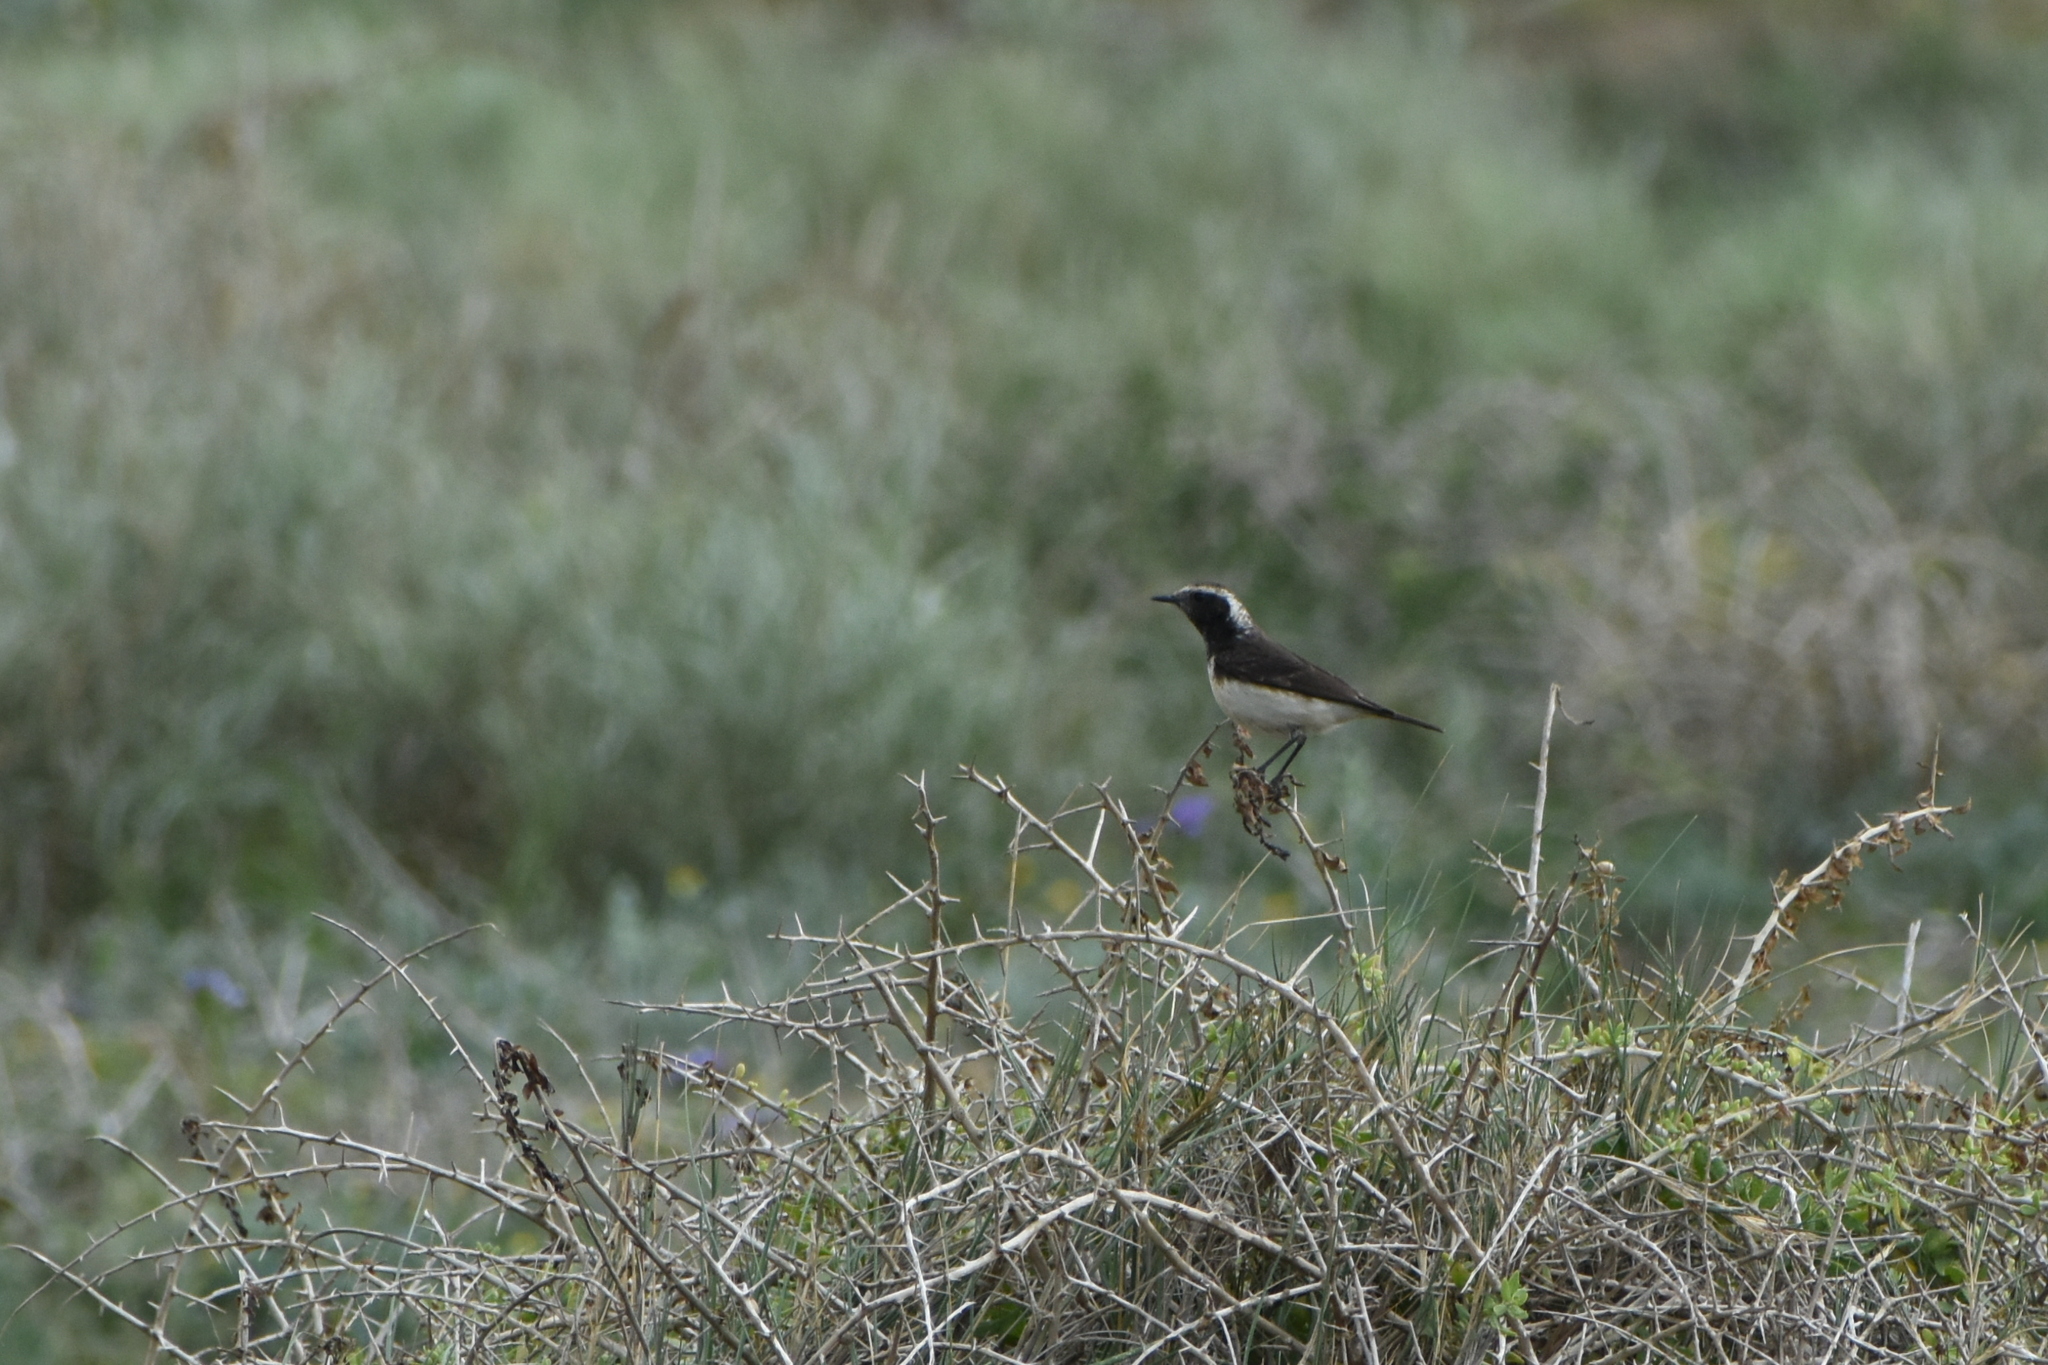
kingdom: Animalia
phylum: Chordata
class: Aves
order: Passeriformes
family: Muscicapidae
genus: Oenanthe
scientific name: Oenanthe cypriaca
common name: Cyprus wheatear
